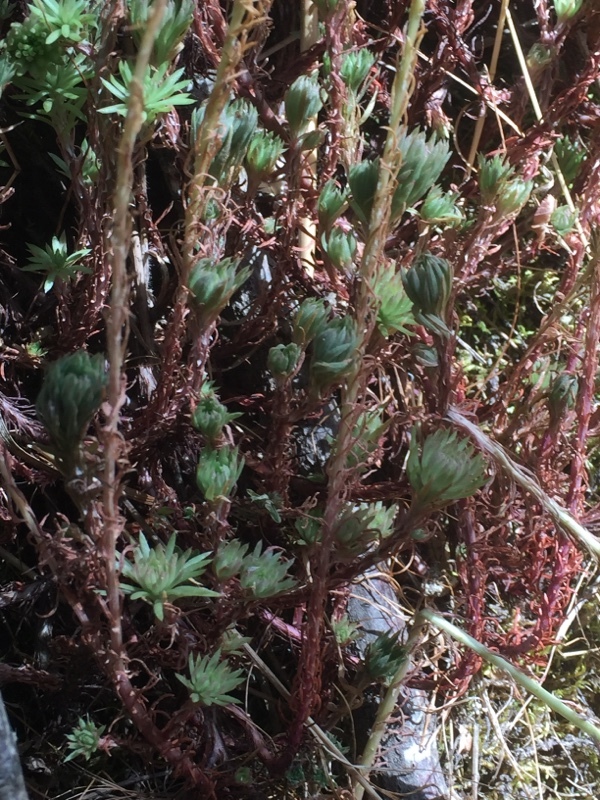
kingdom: Plantae
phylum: Tracheophyta
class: Magnoliopsida
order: Saxifragales
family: Crassulaceae
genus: Petrosedum
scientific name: Petrosedum forsterianum
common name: Forster's stonecrop
